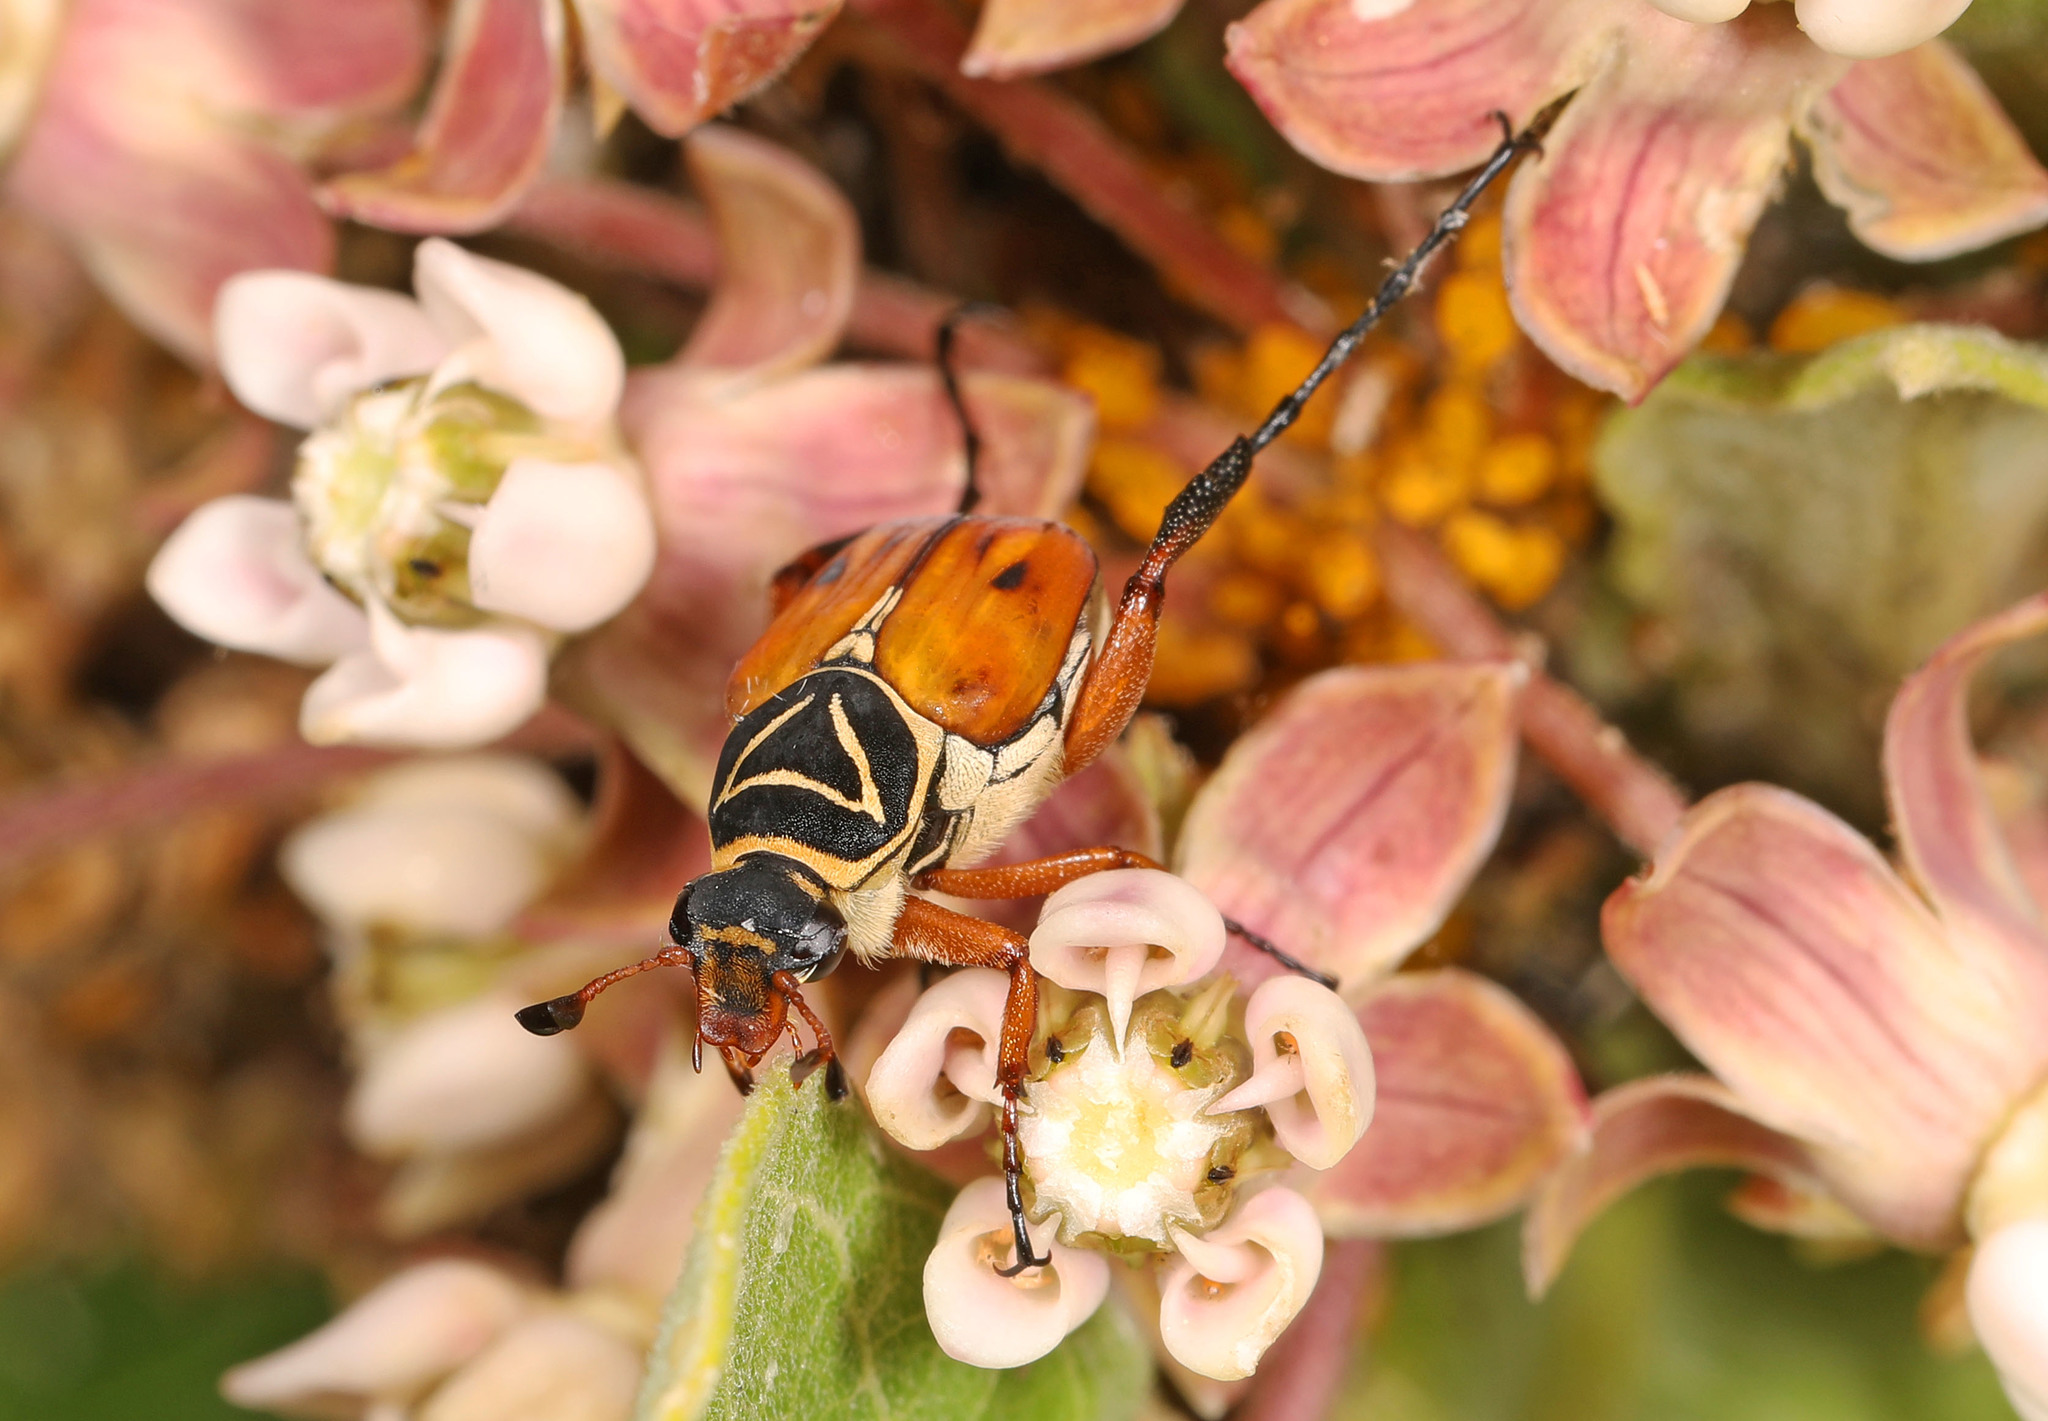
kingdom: Animalia
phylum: Arthropoda
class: Insecta
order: Coleoptera
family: Scarabaeidae
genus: Trigonopeltastes
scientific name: Trigonopeltastes delta
